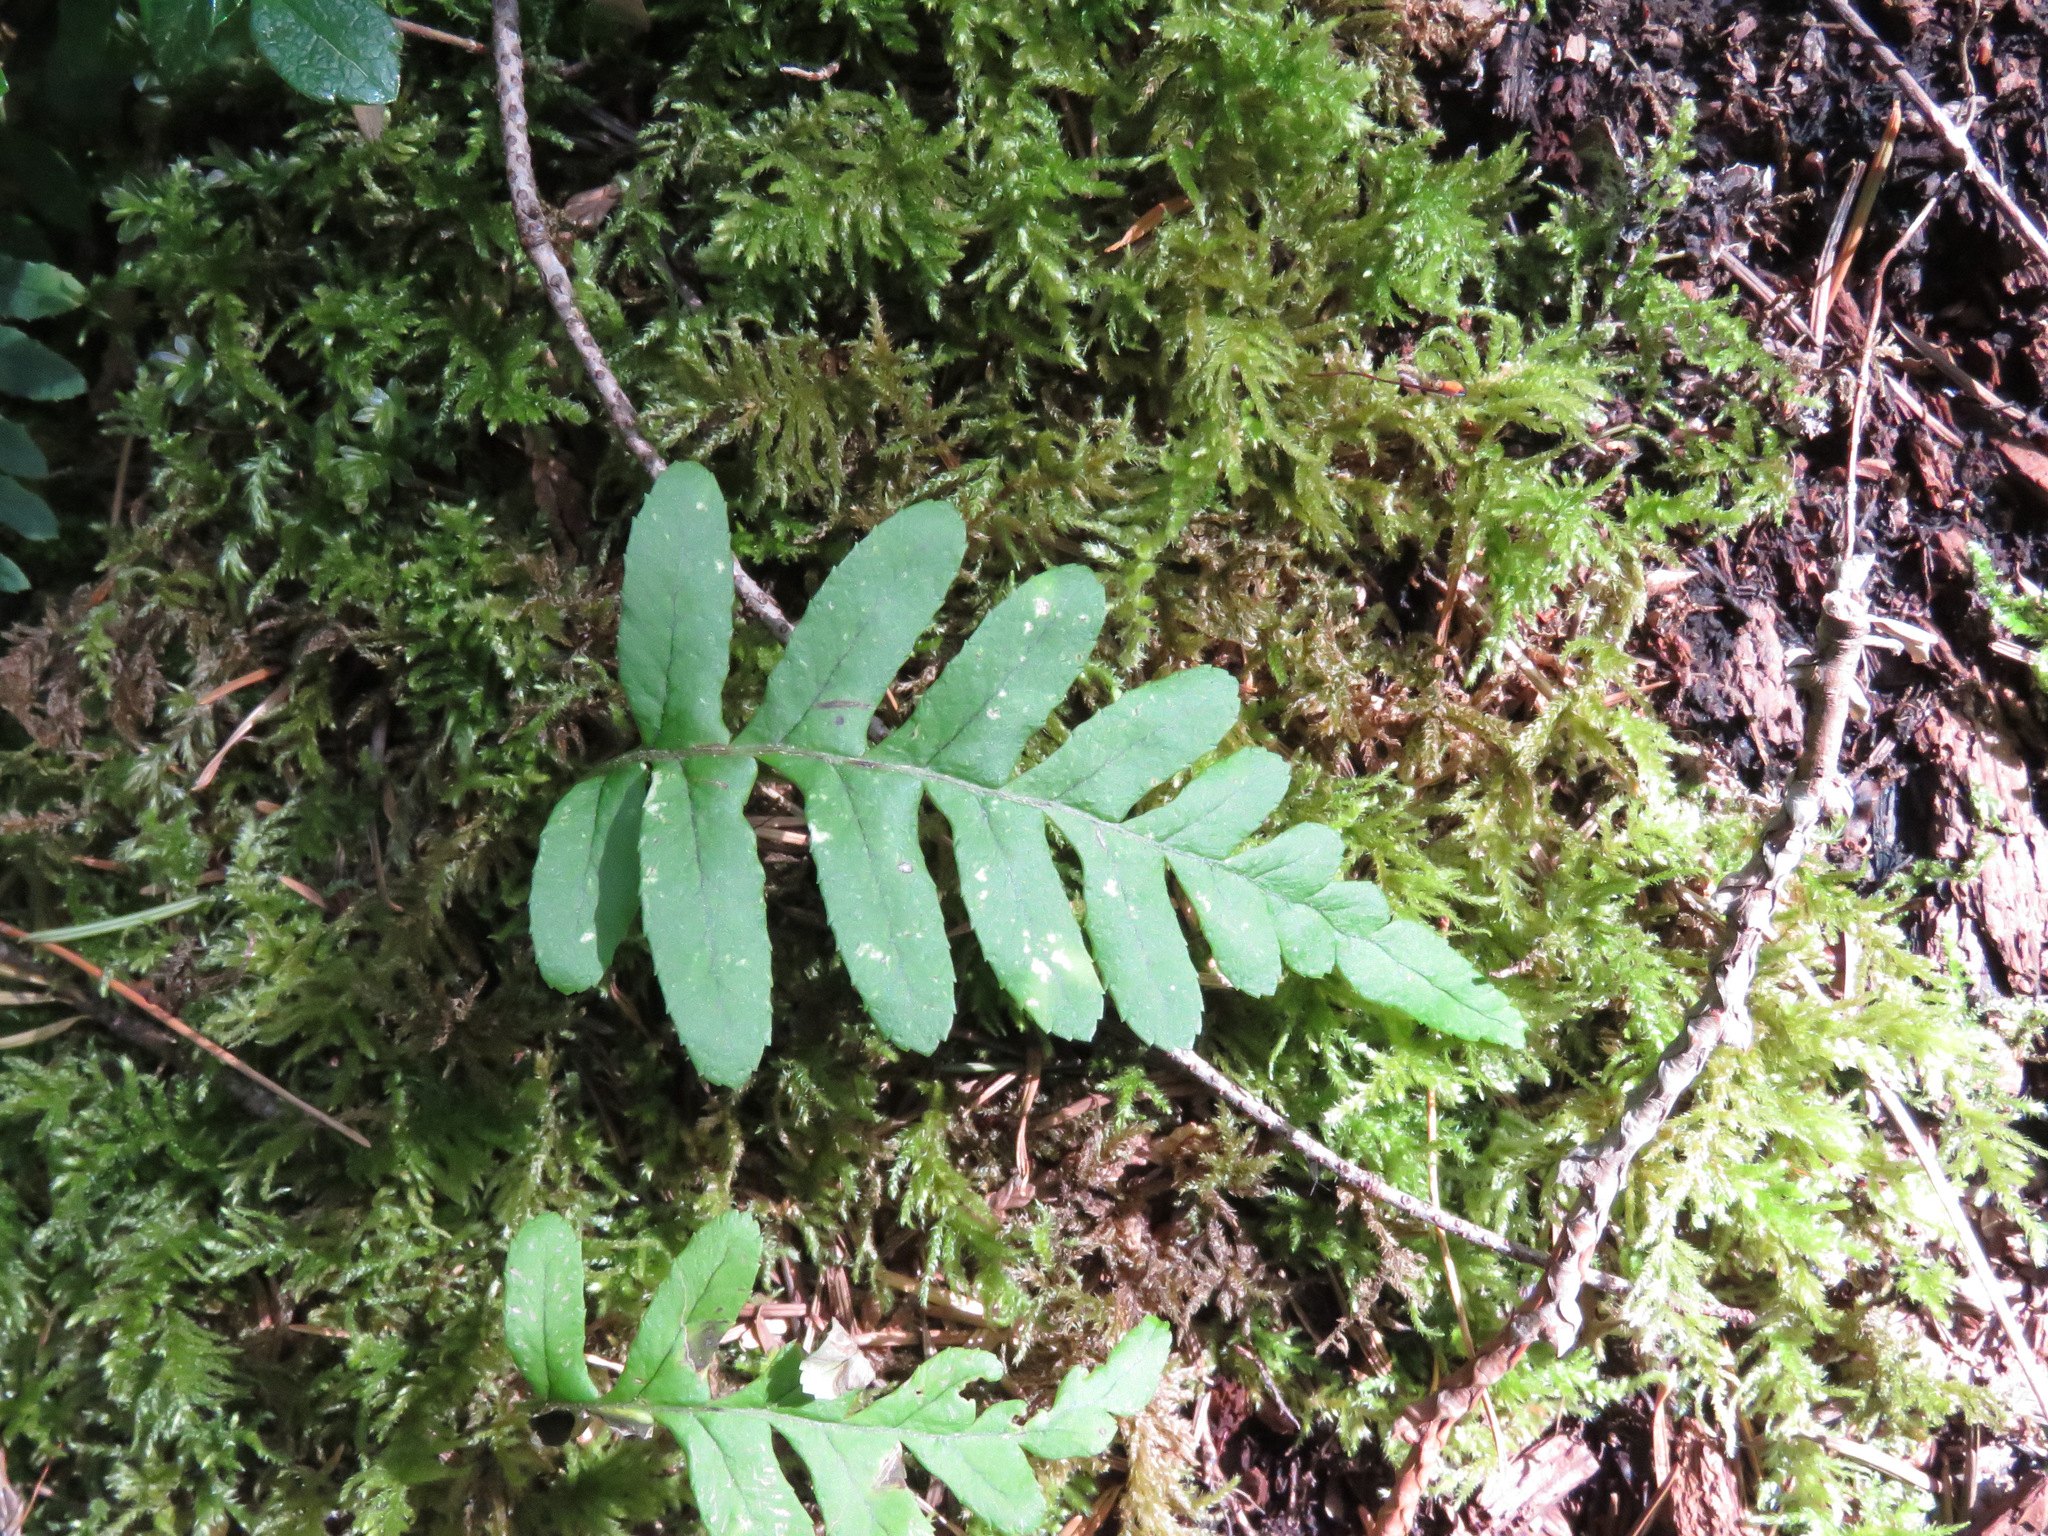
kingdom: Plantae
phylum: Tracheophyta
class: Polypodiopsida
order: Polypodiales
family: Polypodiaceae
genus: Polypodium
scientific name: Polypodium glycyrrhiza
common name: Licorice fern
